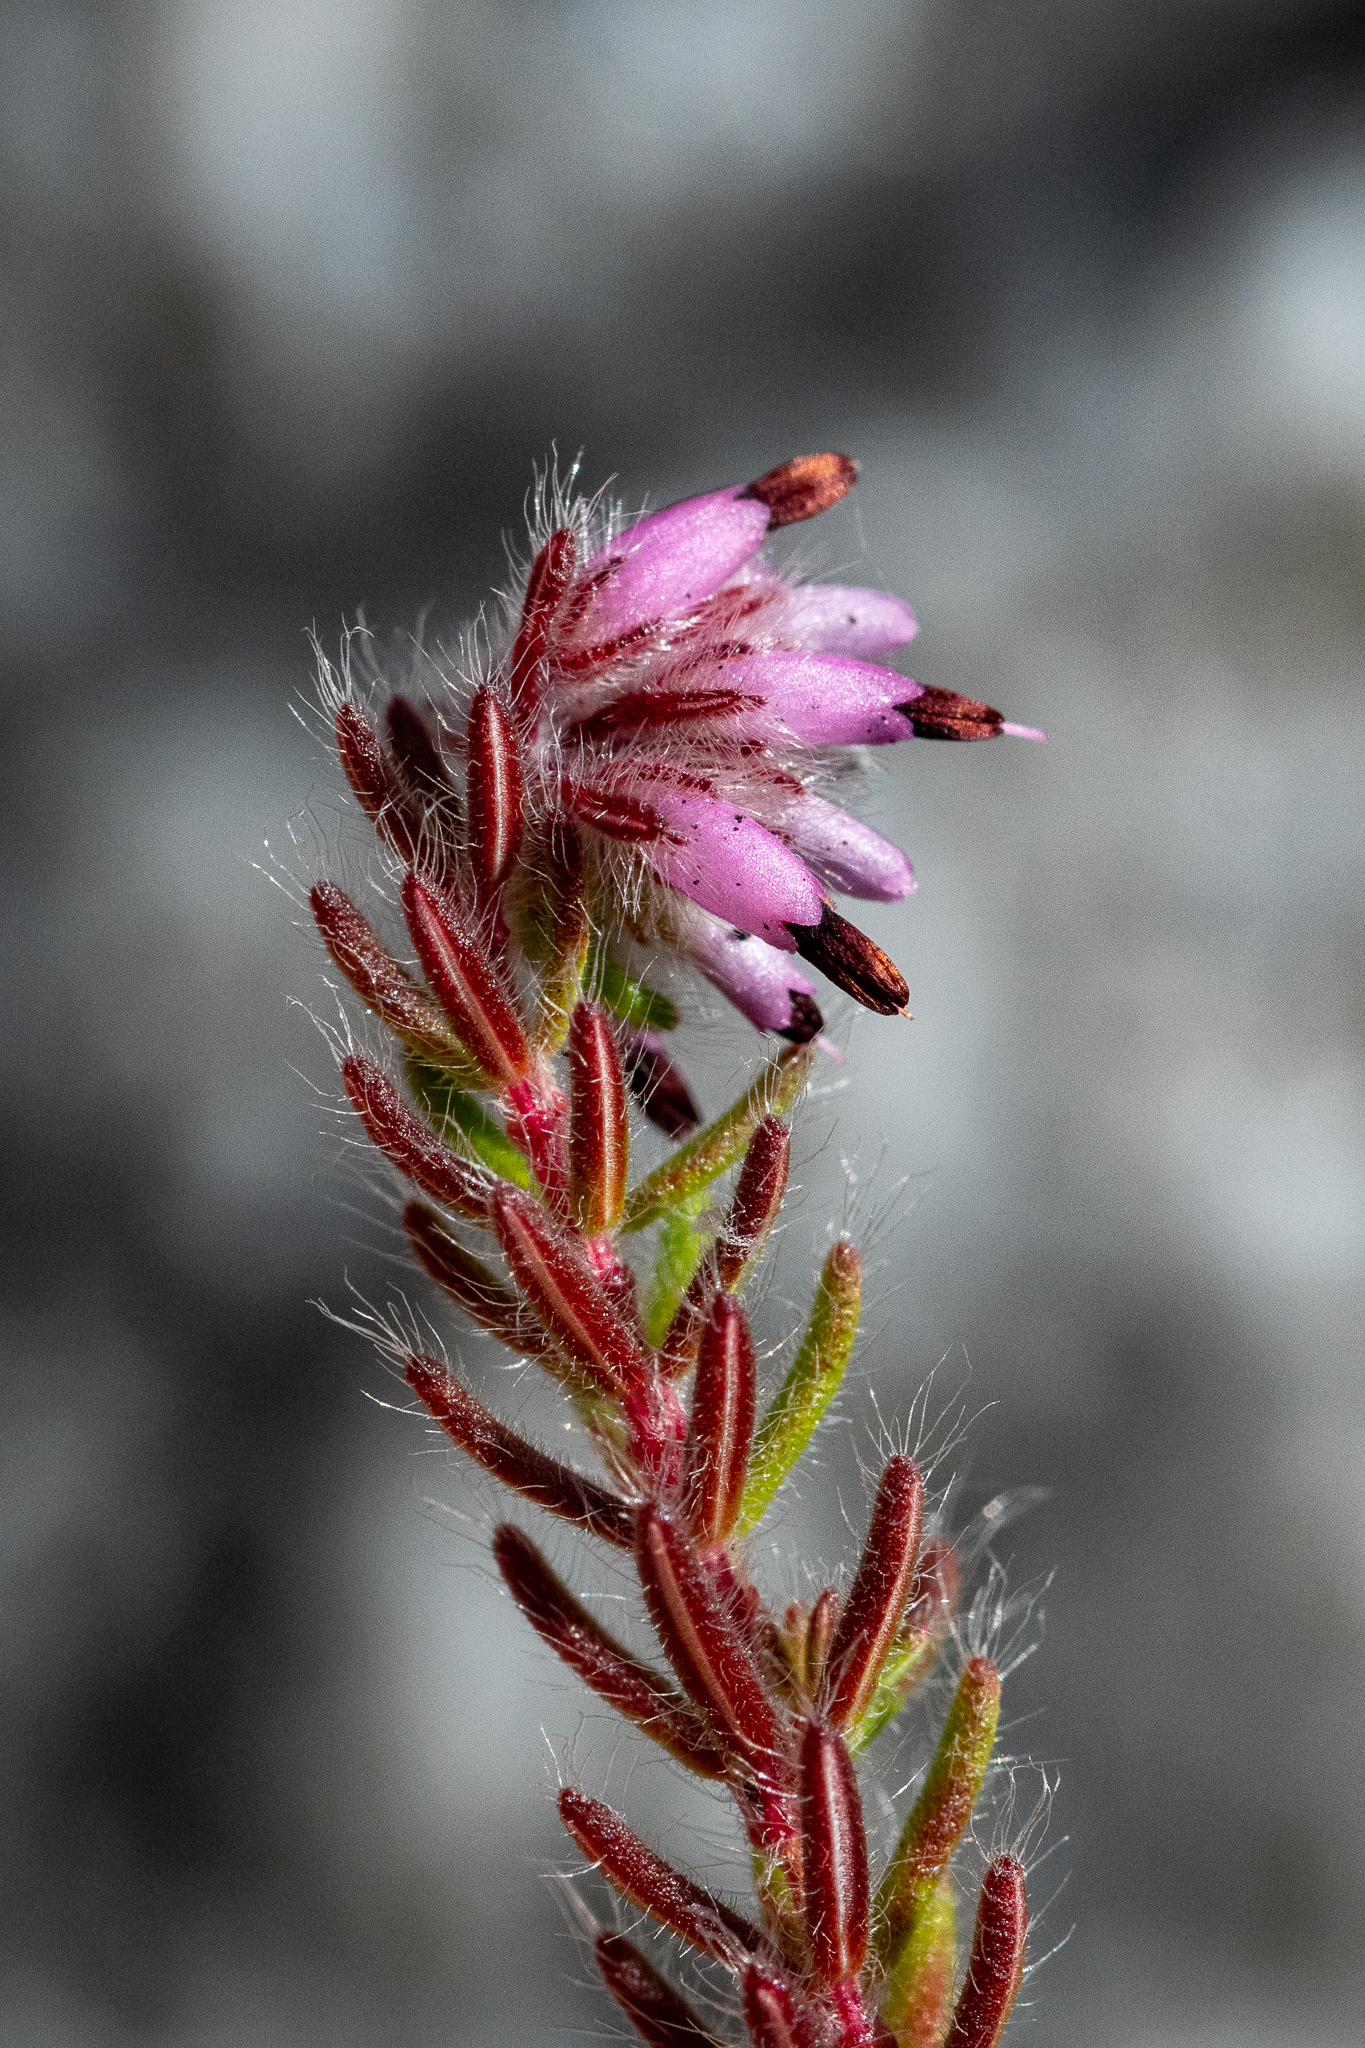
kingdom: Plantae
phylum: Tracheophyta
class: Magnoliopsida
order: Ericales
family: Ericaceae
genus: Erica
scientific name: Erica eriocephala
